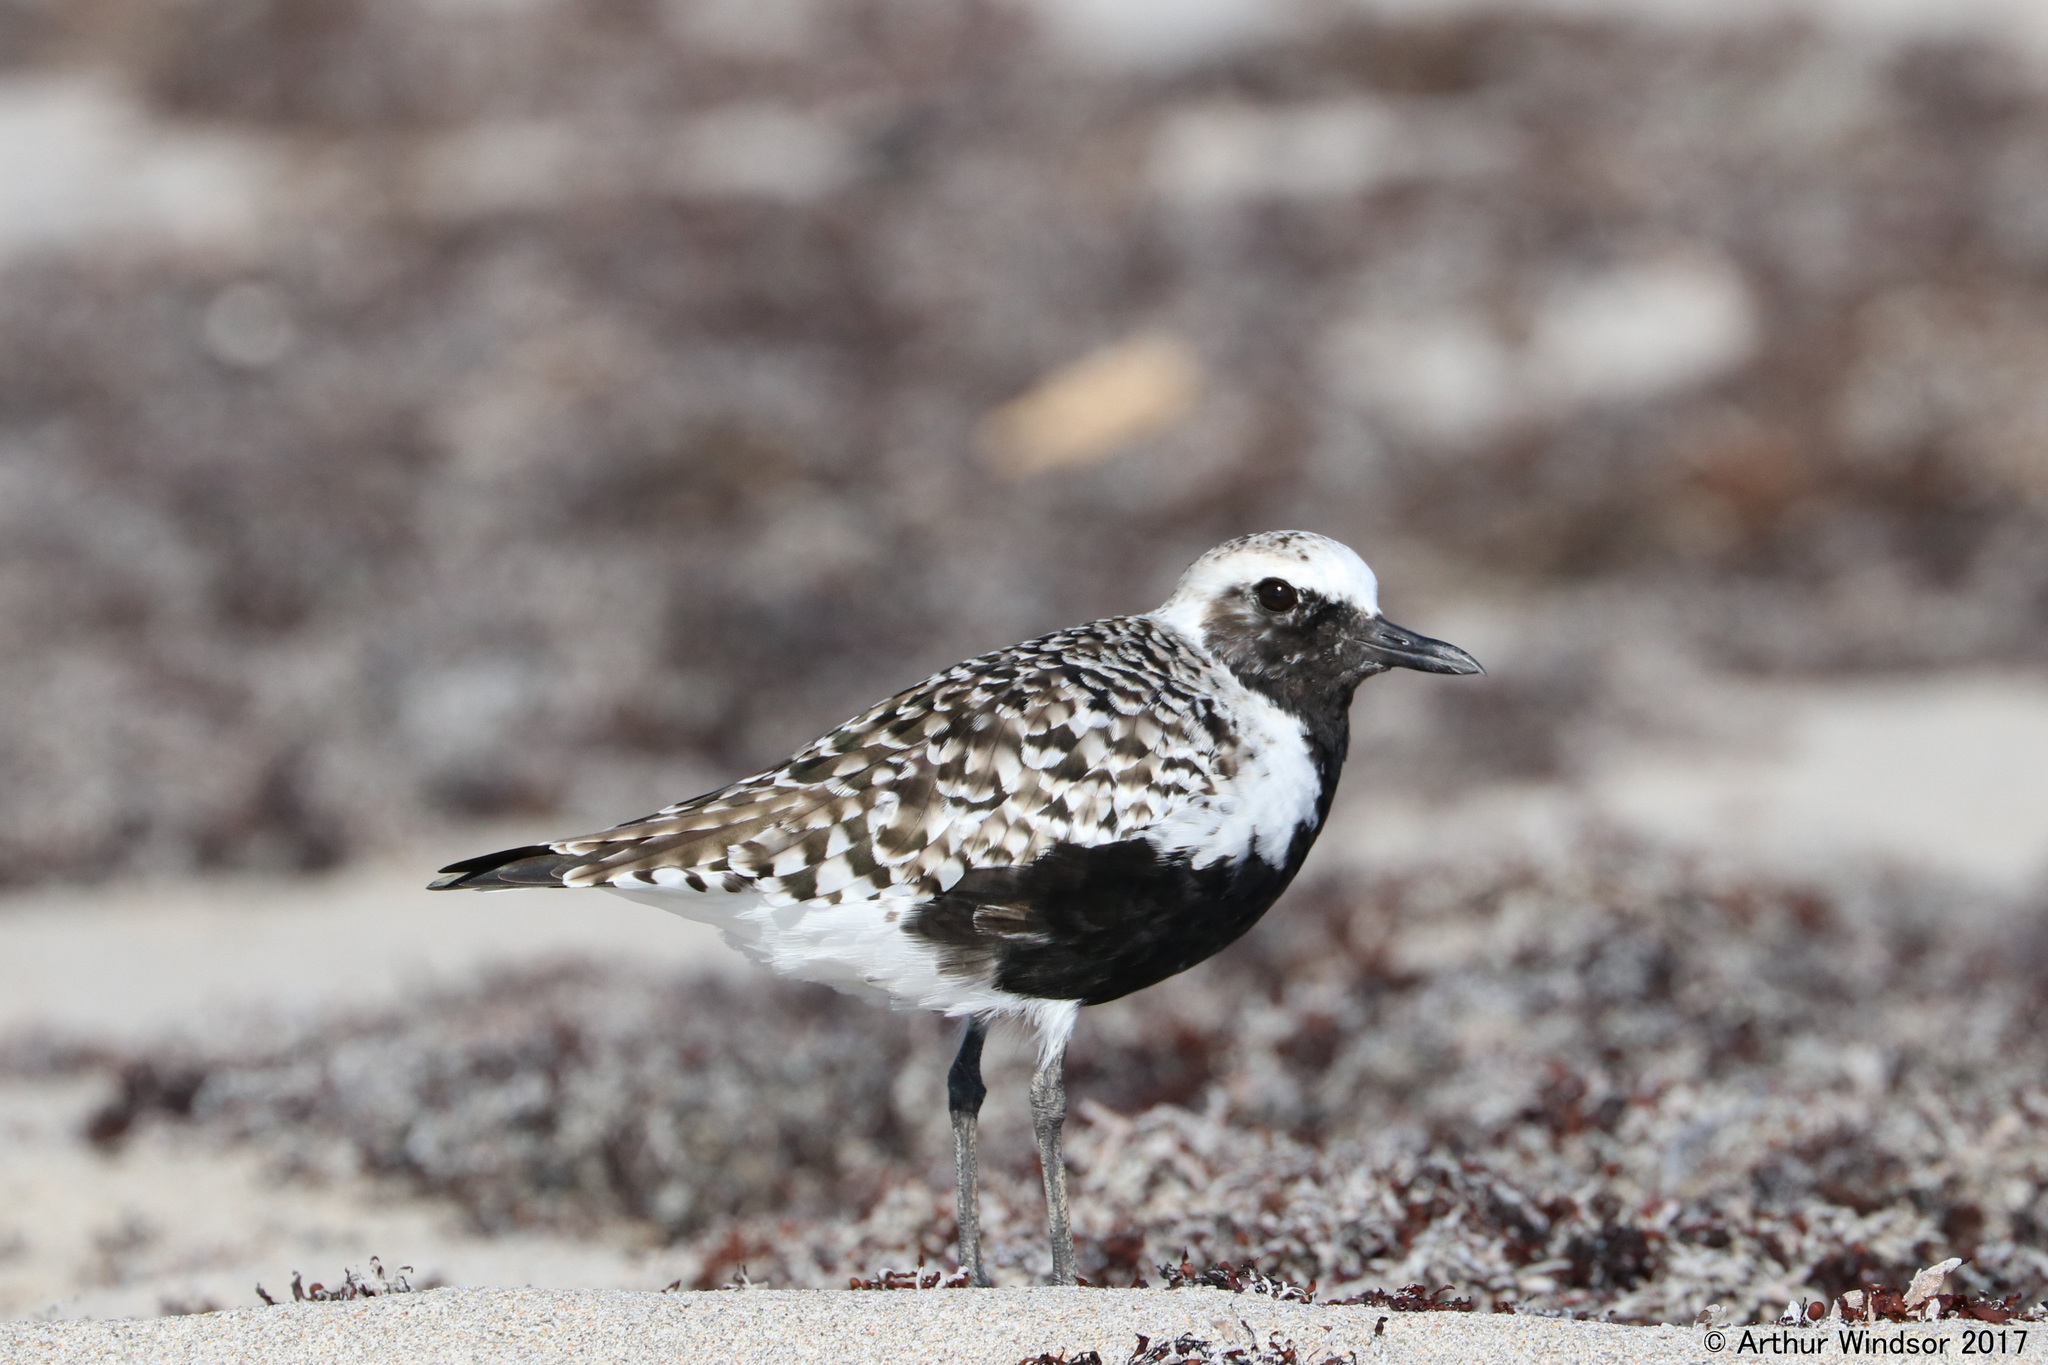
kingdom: Animalia
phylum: Chordata
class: Aves
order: Charadriiformes
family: Charadriidae
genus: Pluvialis
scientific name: Pluvialis squatarola
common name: Grey plover
